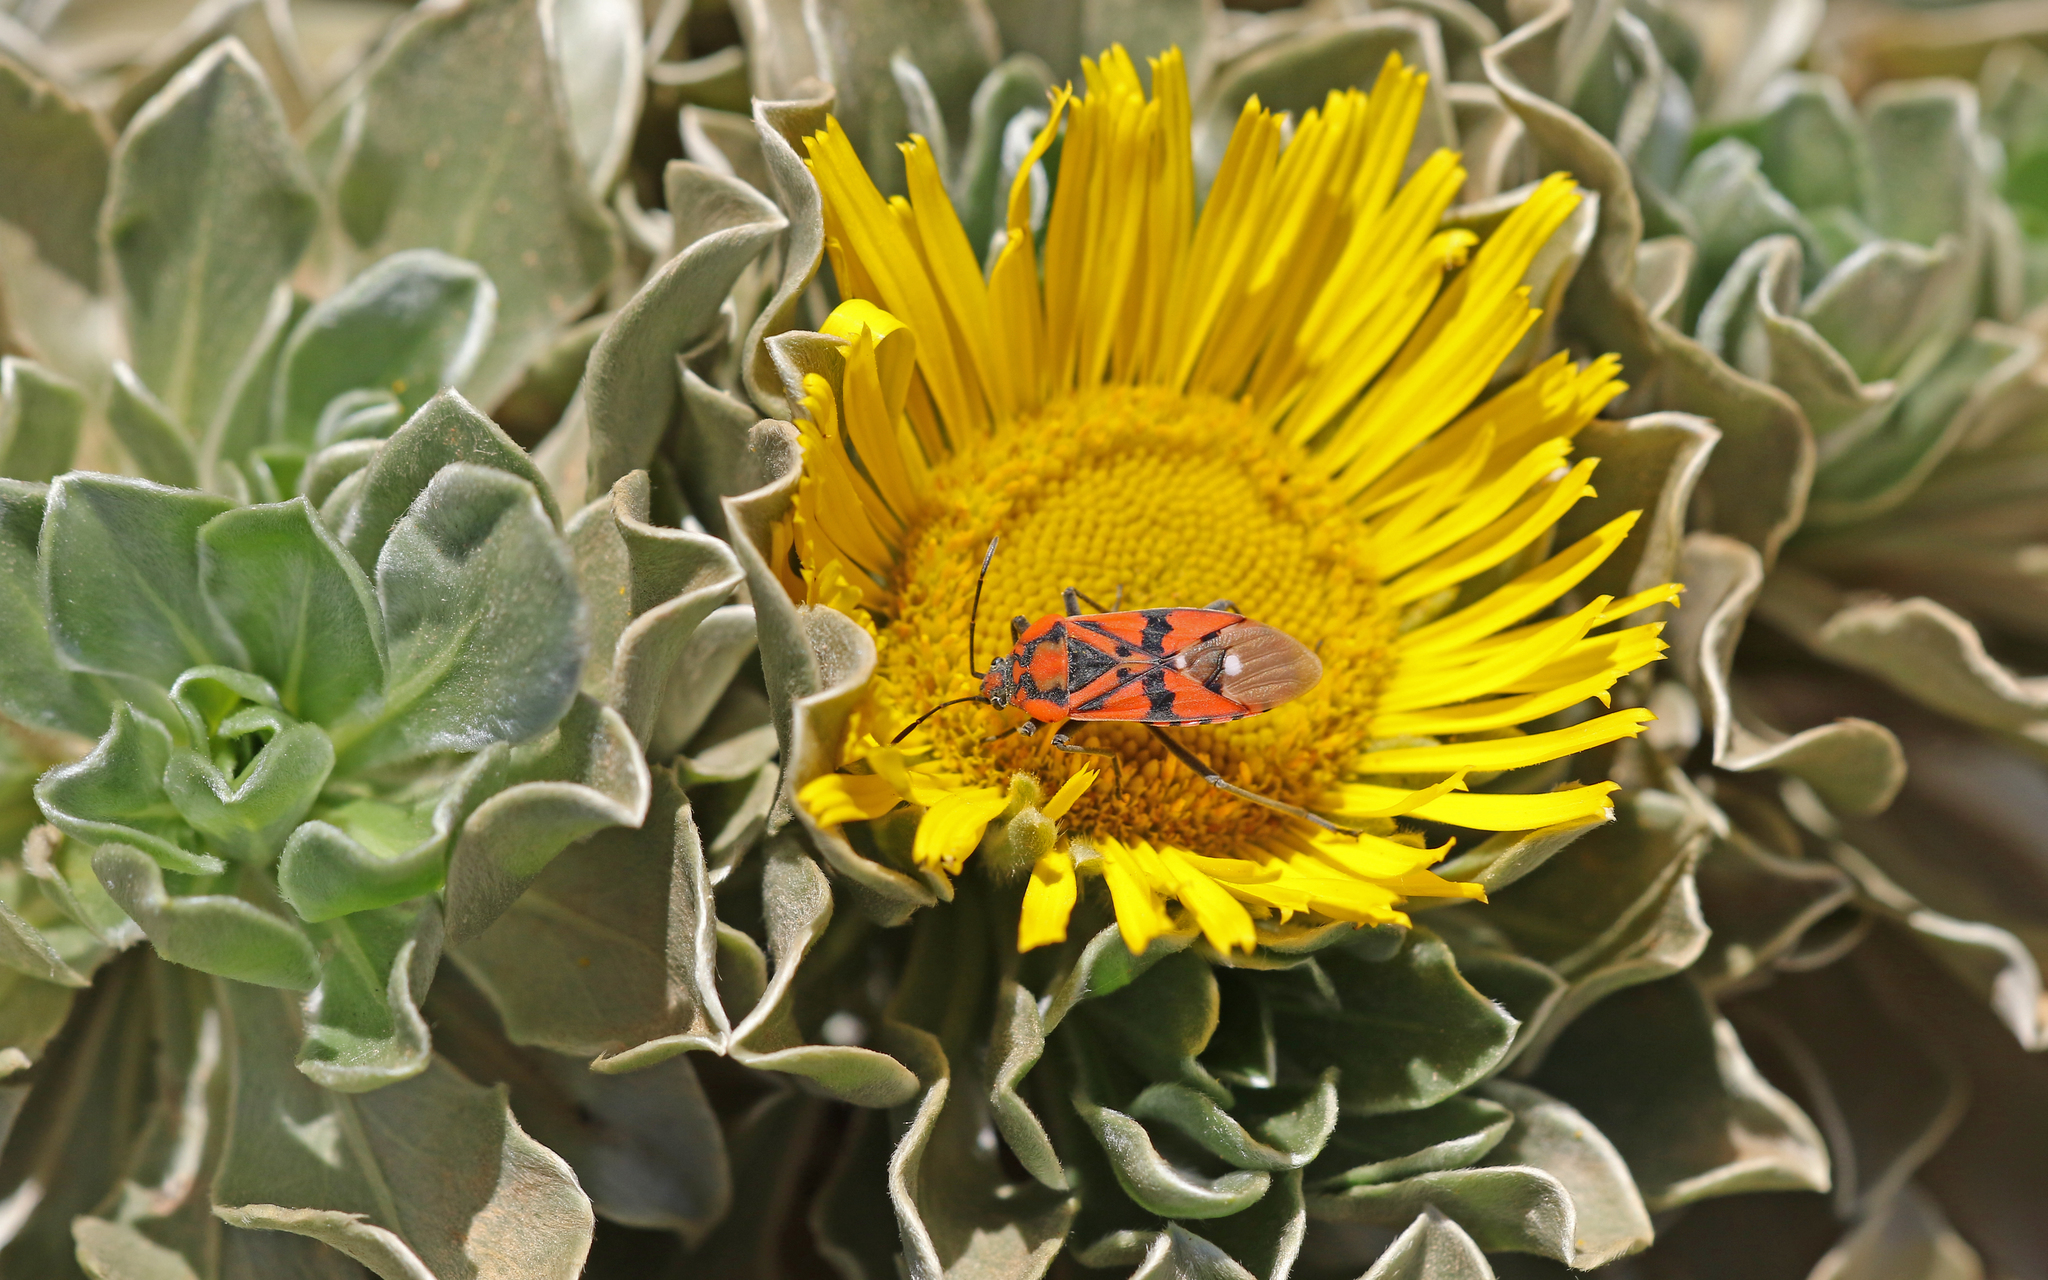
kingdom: Animalia
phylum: Arthropoda
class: Insecta
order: Hemiptera
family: Lygaeidae
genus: Spilostethus
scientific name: Spilostethus pandurus
